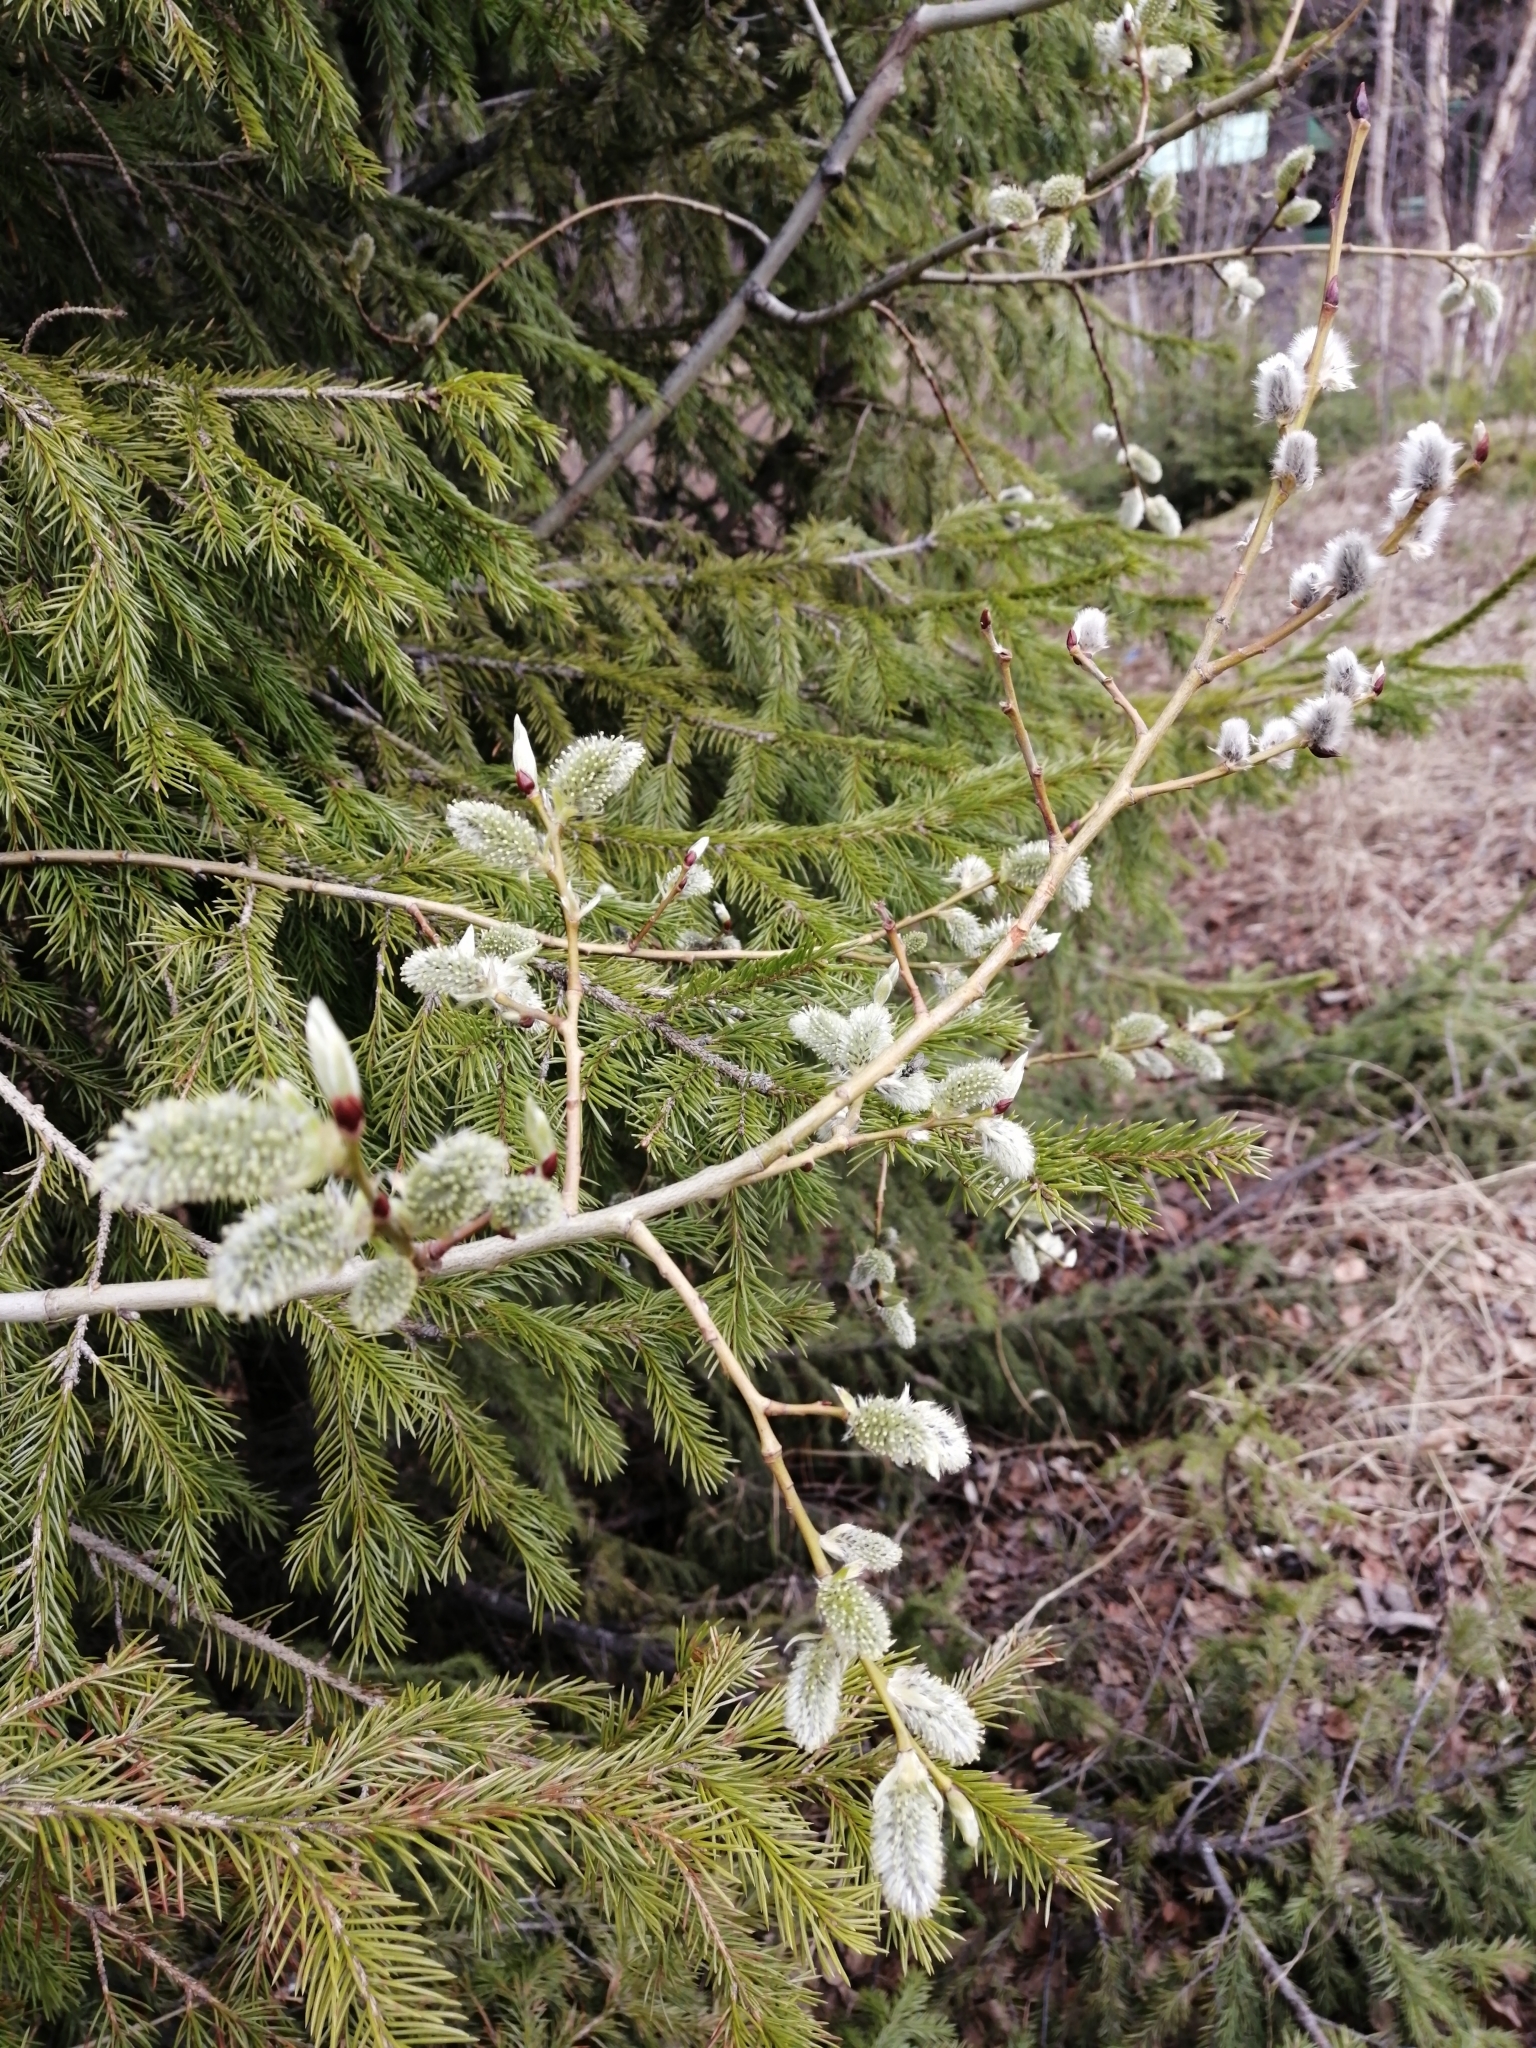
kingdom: Plantae
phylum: Tracheophyta
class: Magnoliopsida
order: Malpighiales
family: Salicaceae
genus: Salix
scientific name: Salix caprea
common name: Goat willow
